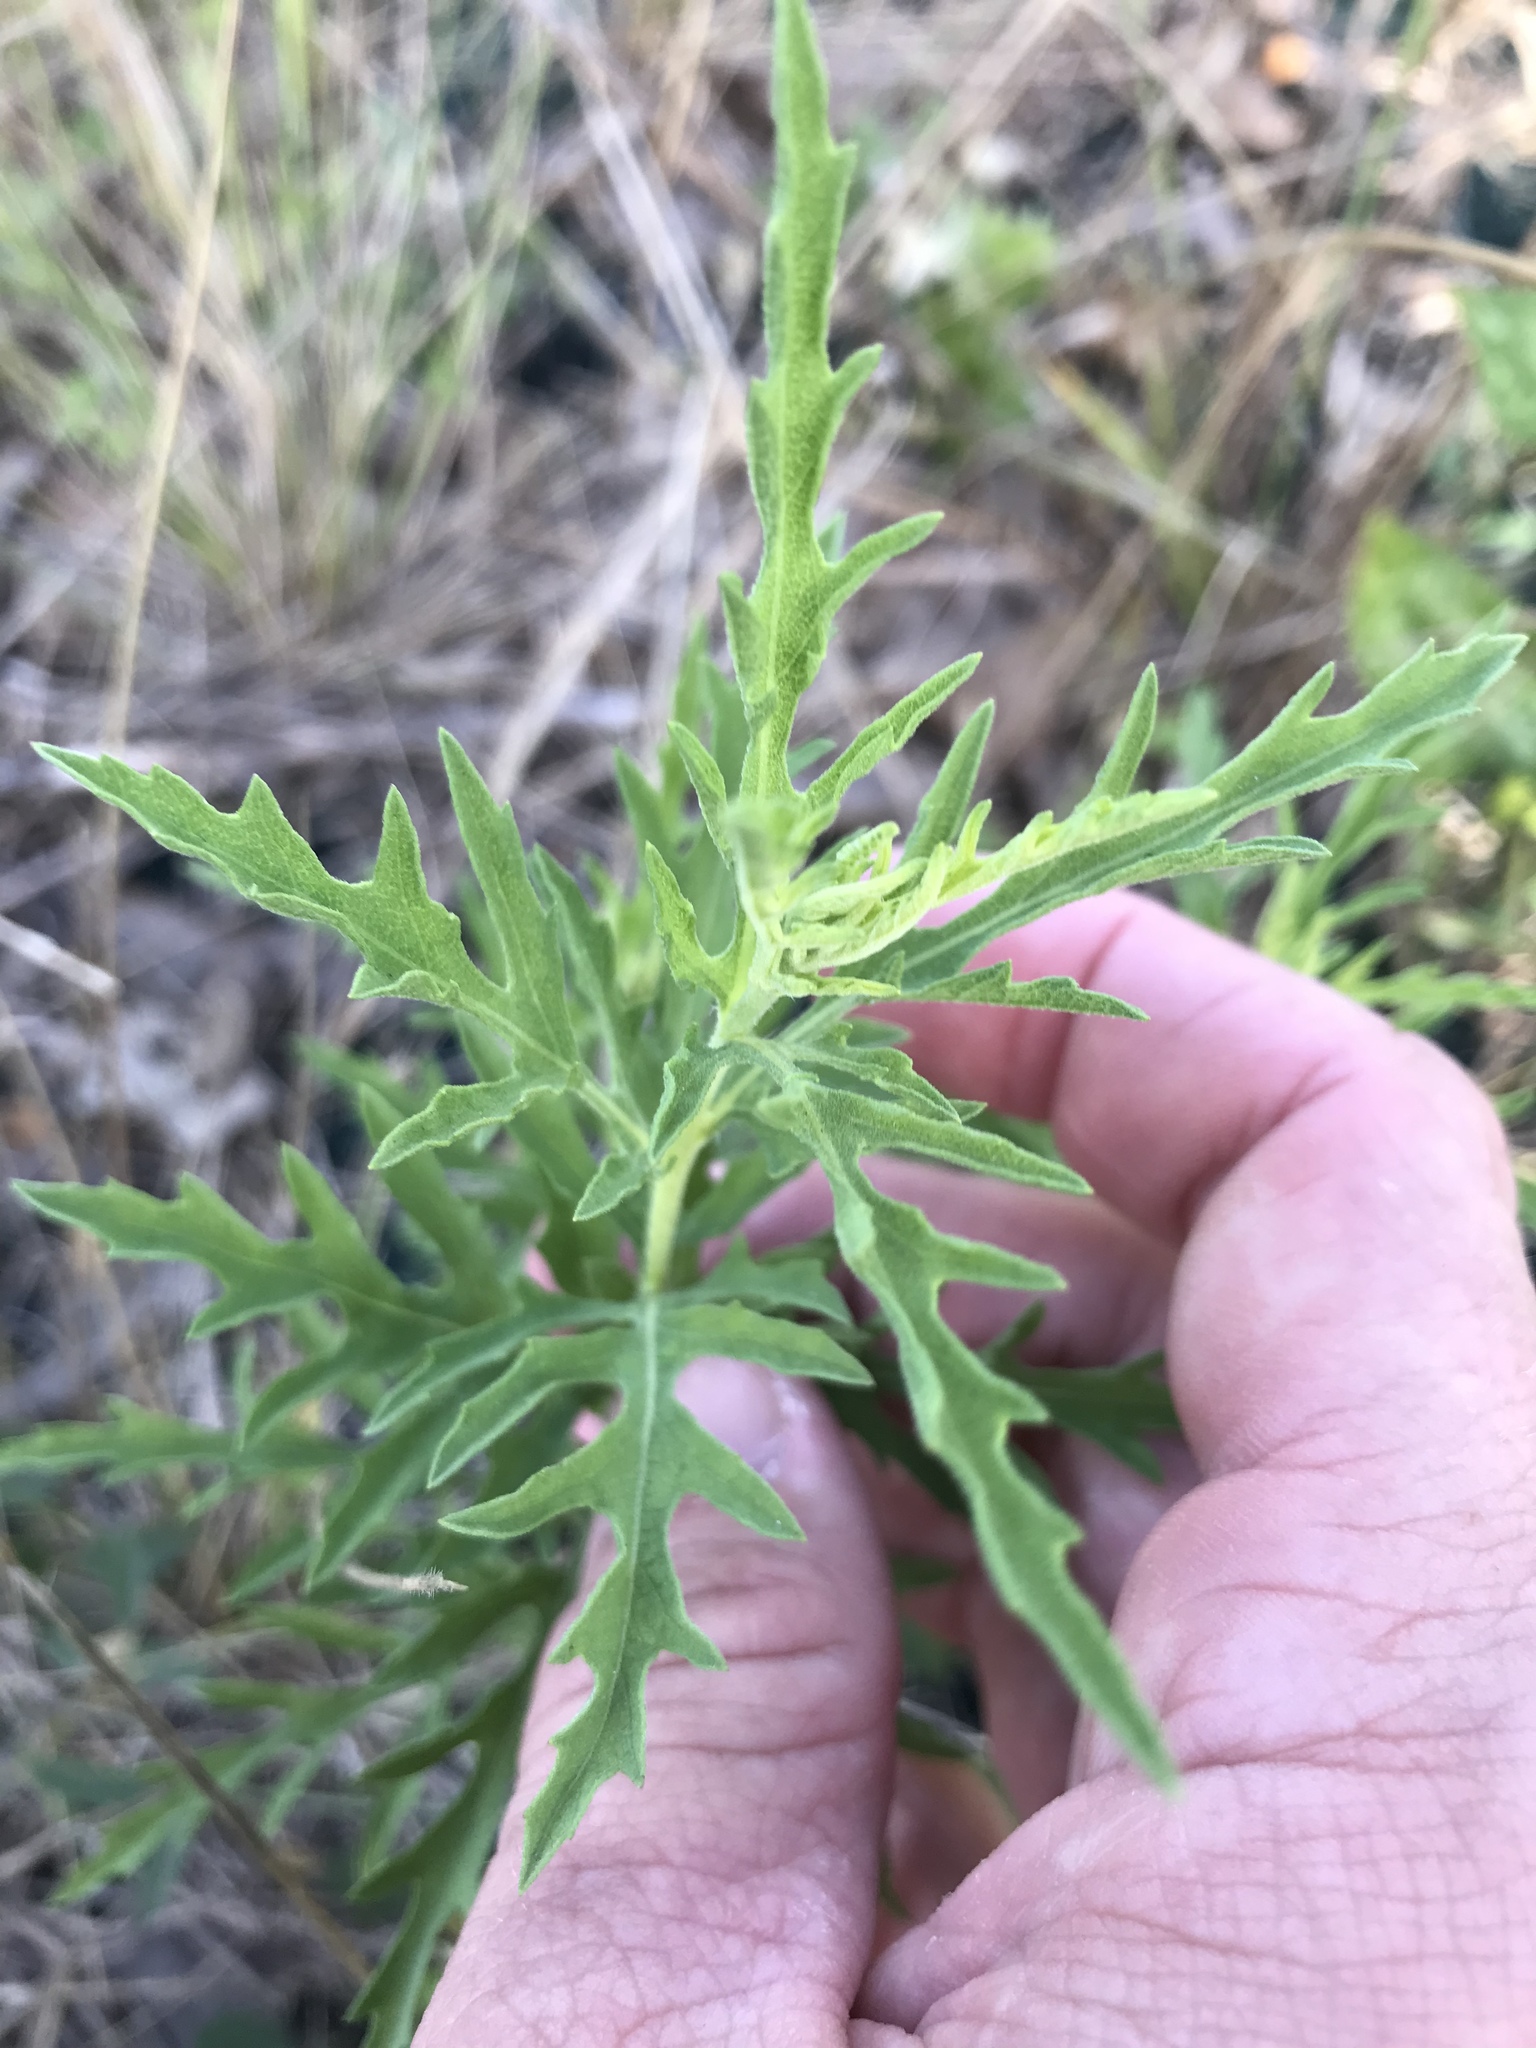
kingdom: Plantae
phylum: Tracheophyta
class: Magnoliopsida
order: Asterales
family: Asteraceae
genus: Ambrosia
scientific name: Ambrosia psilostachya
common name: Perennial ragweed
